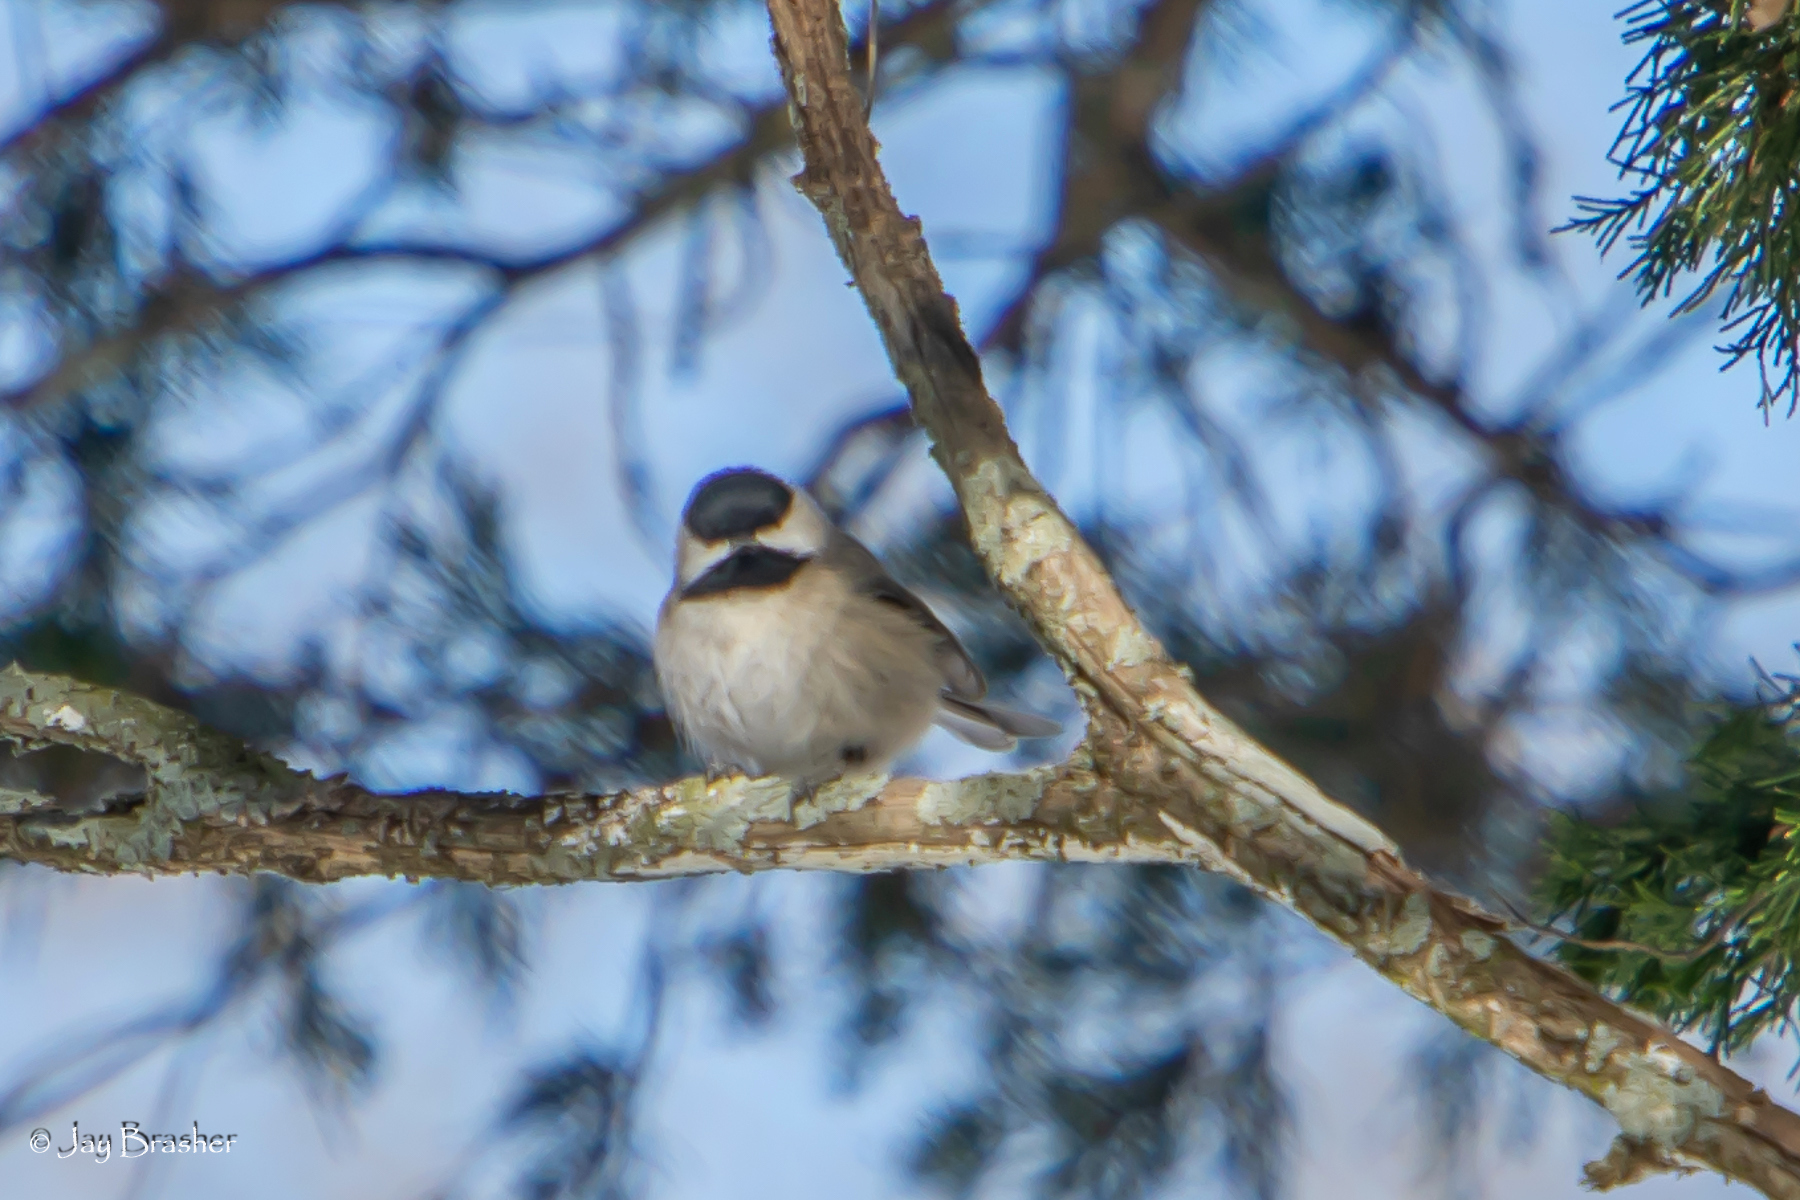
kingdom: Animalia
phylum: Chordata
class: Aves
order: Passeriformes
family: Paridae
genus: Poecile
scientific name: Poecile carolinensis
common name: Carolina chickadee
